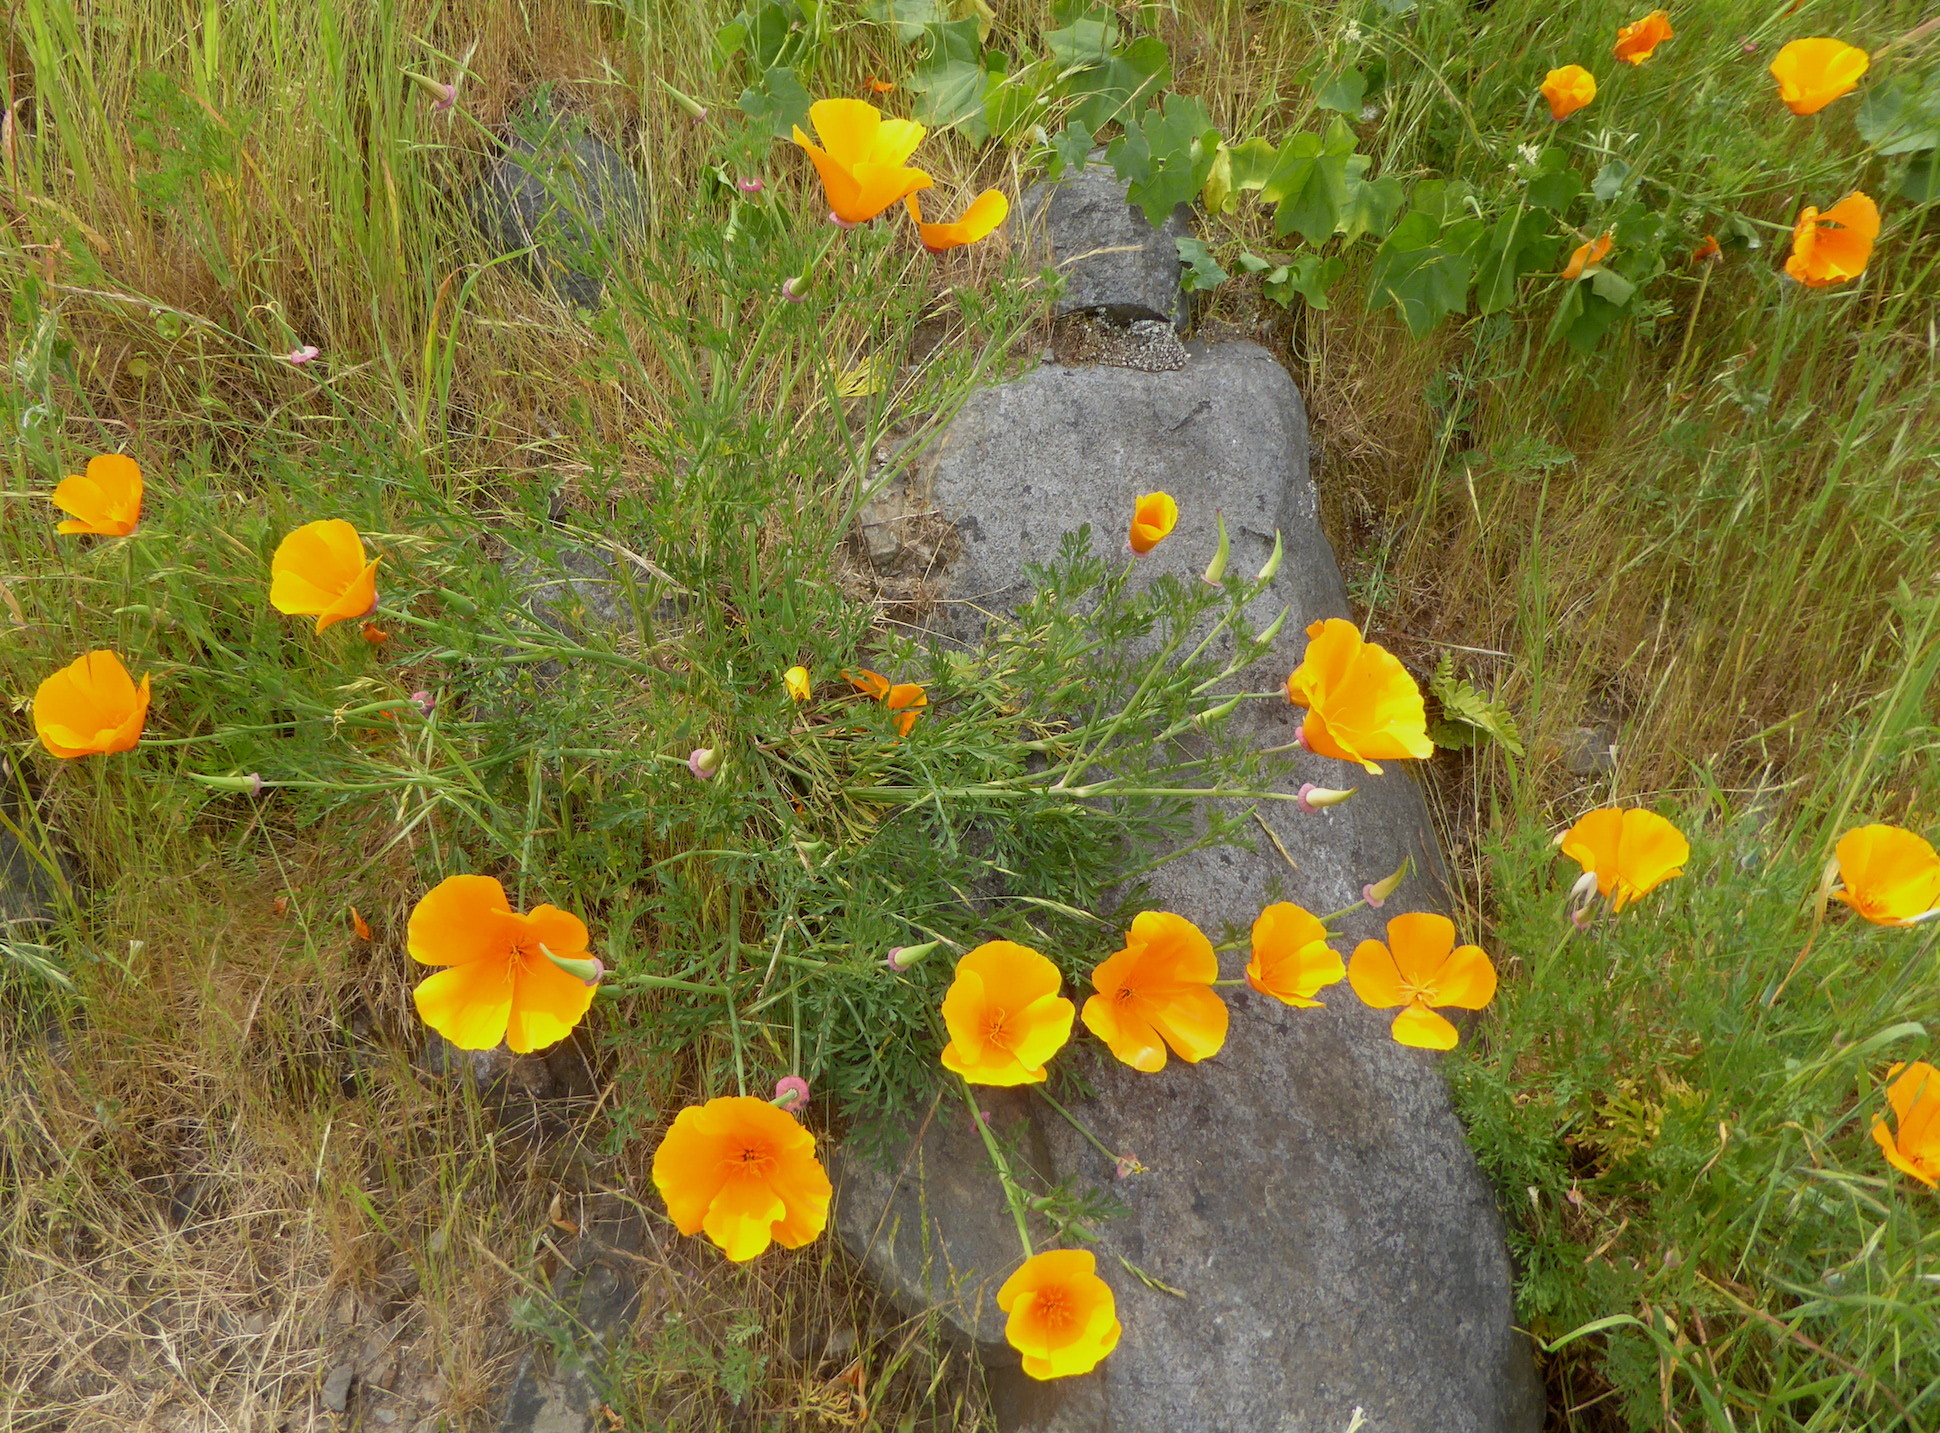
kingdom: Plantae
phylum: Tracheophyta
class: Magnoliopsida
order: Ranunculales
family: Papaveraceae
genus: Eschscholzia
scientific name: Eschscholzia californica
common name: California poppy
